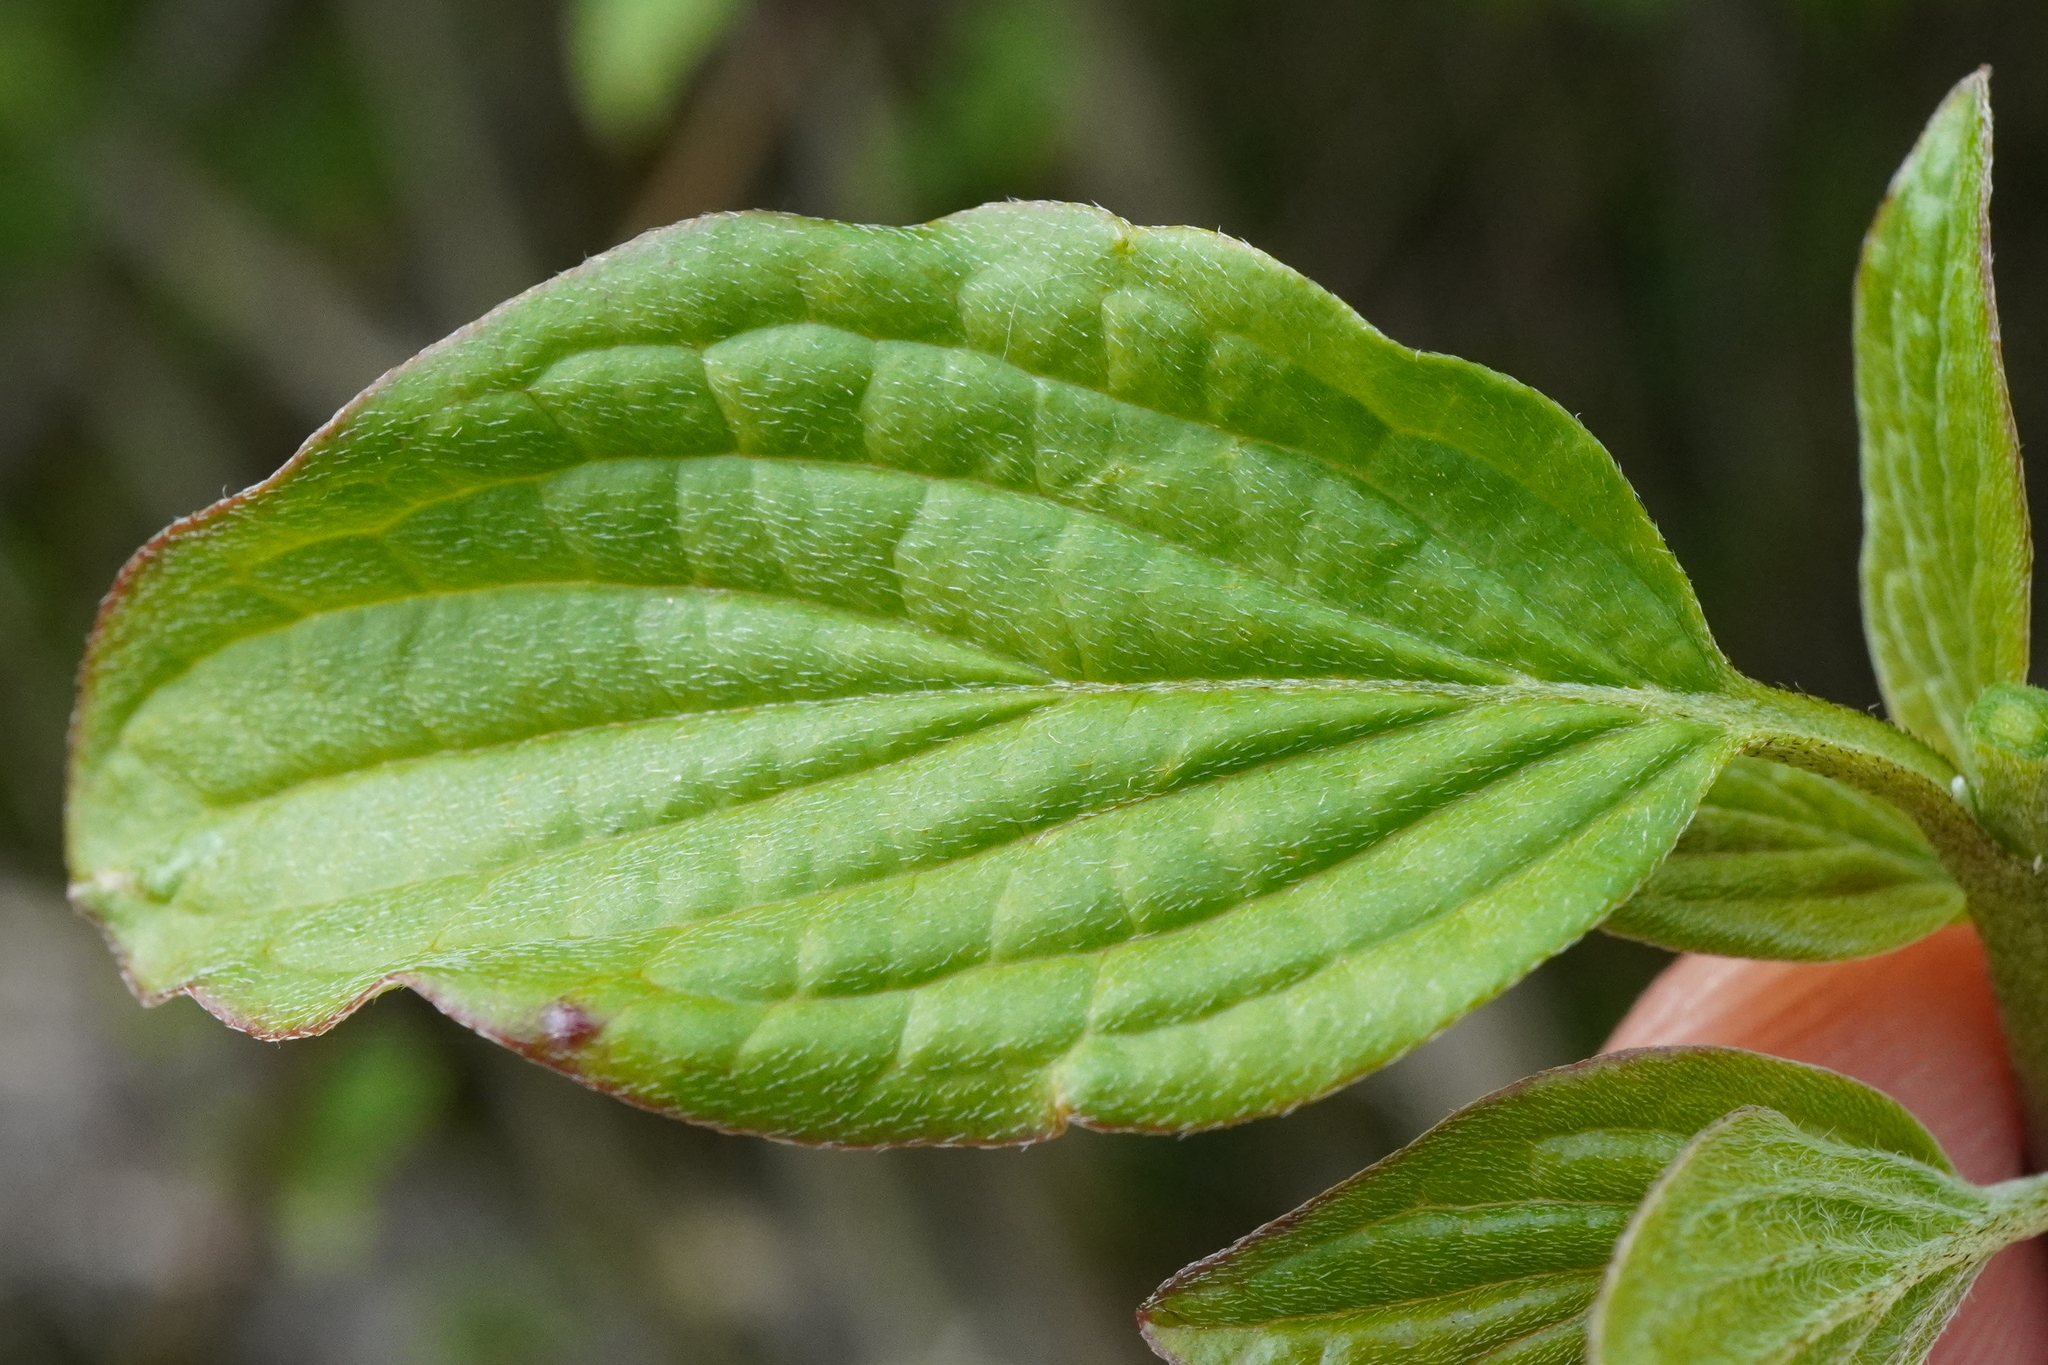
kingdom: Plantae
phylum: Tracheophyta
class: Magnoliopsida
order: Cornales
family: Cornaceae
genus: Cornus
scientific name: Cornus sanguinea
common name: Dogwood
